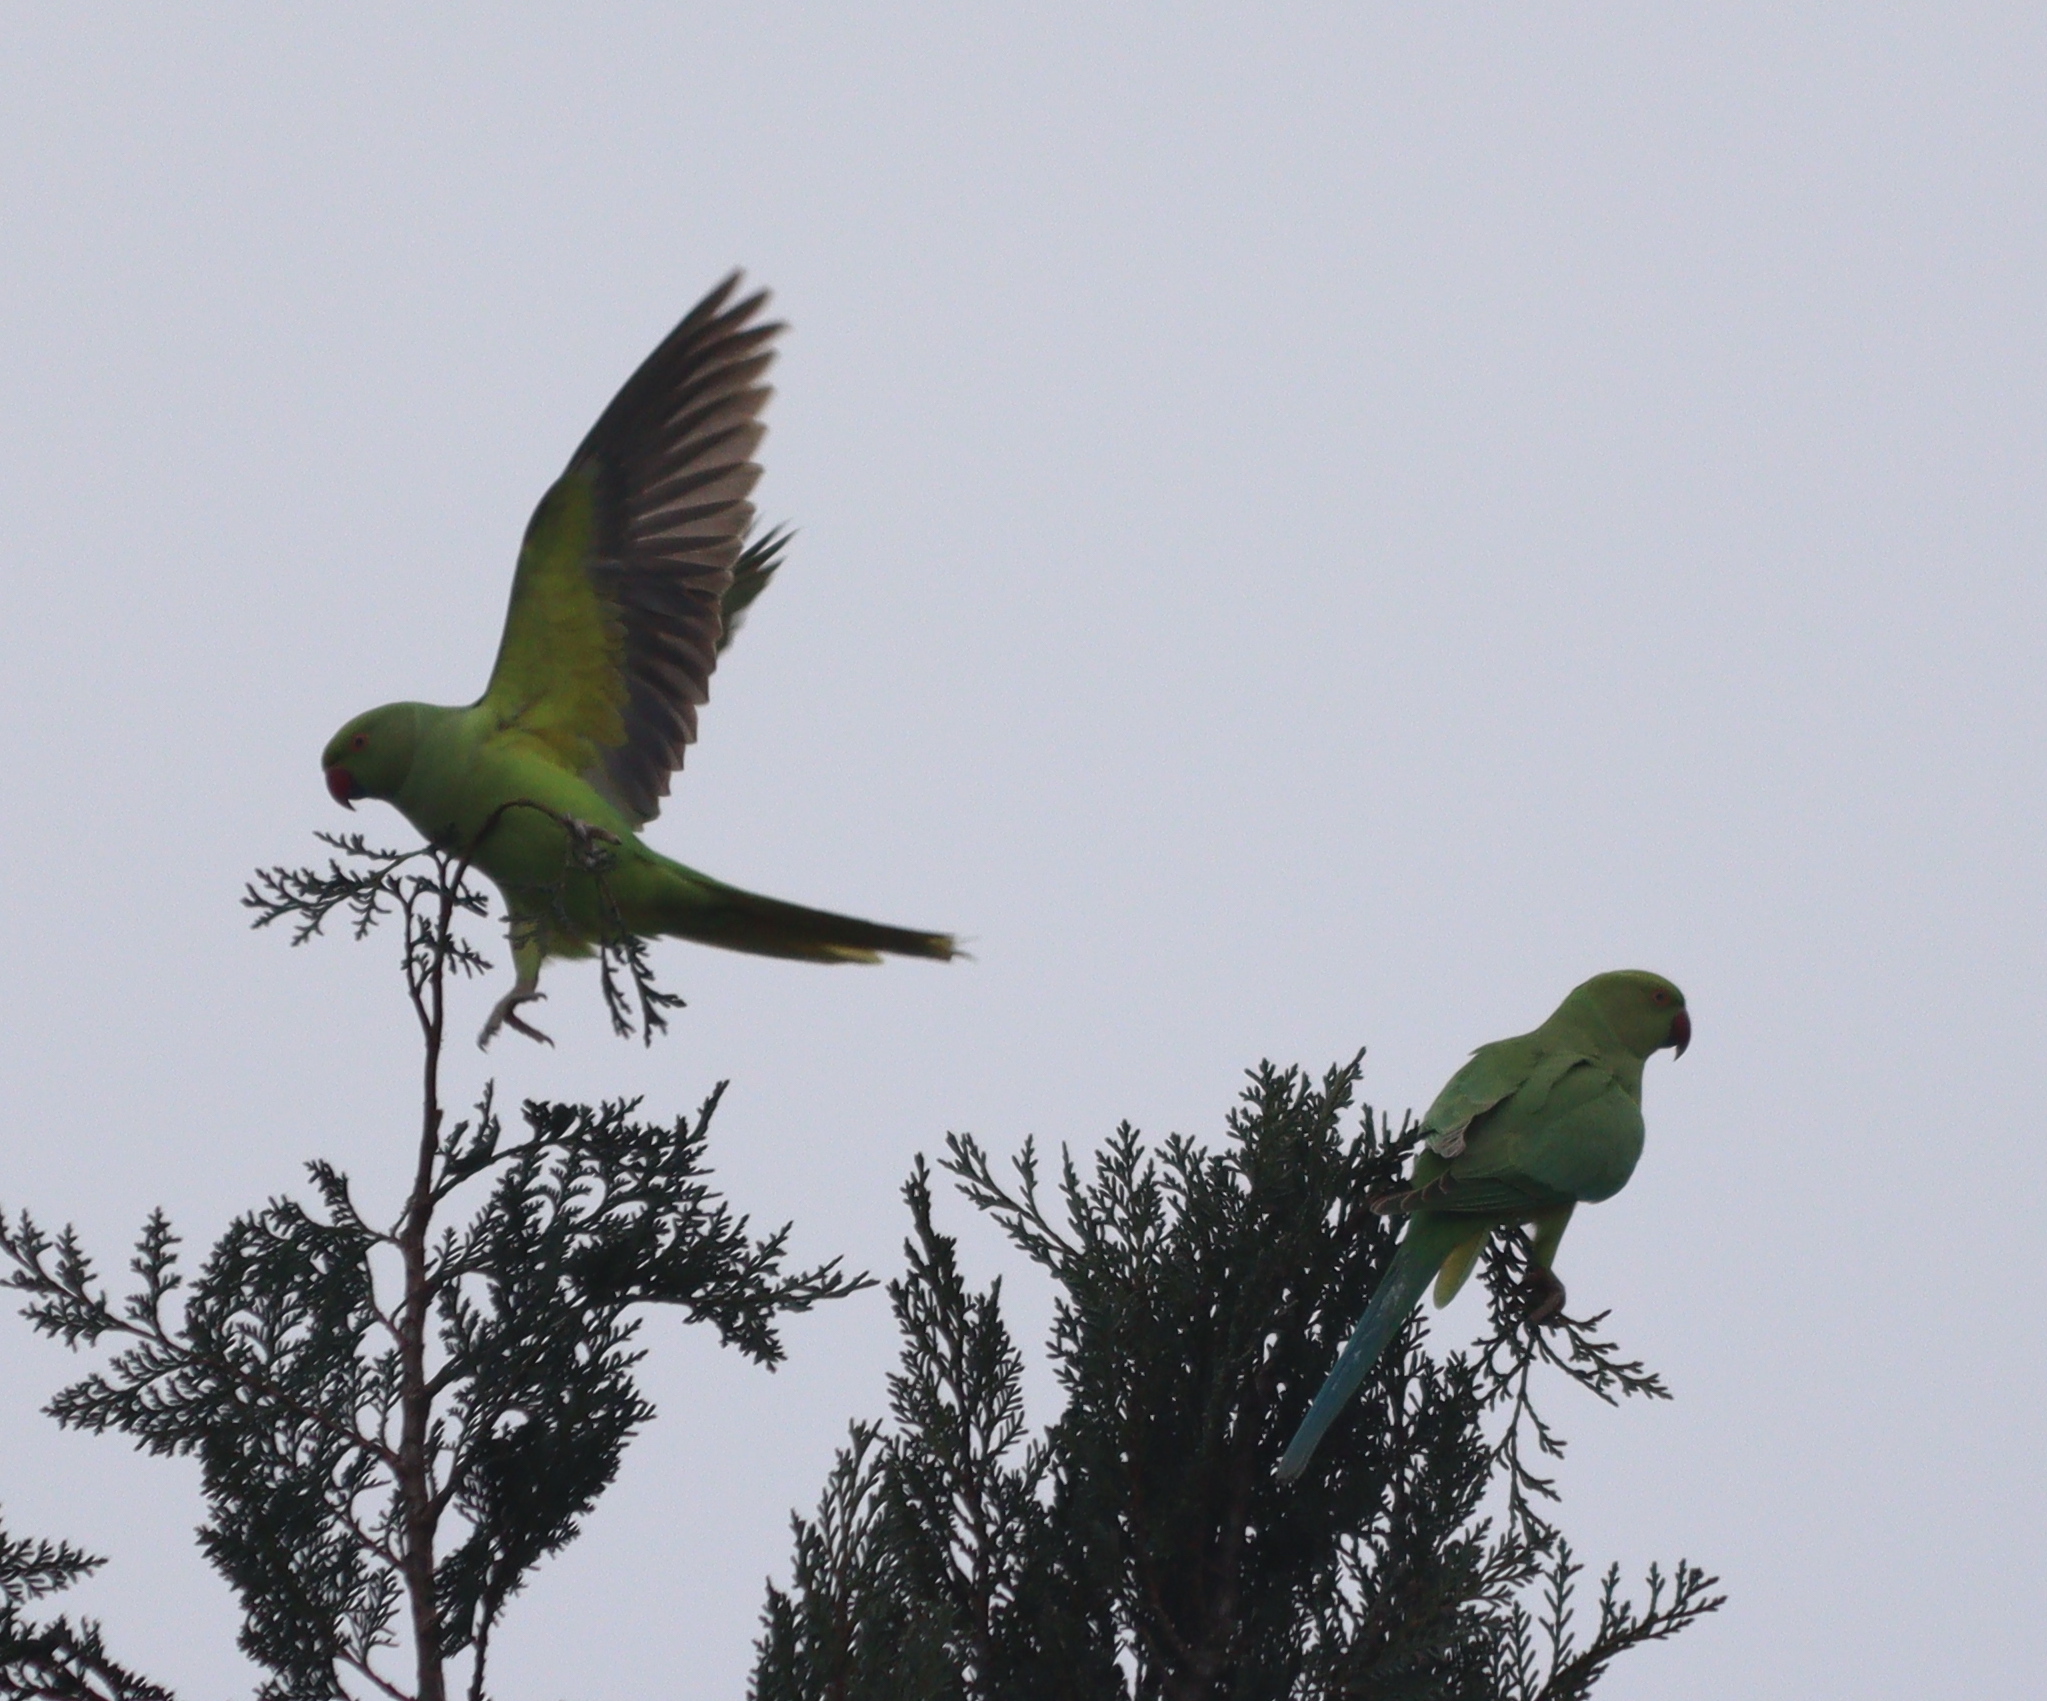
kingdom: Animalia
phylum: Chordata
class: Aves
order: Psittaciformes
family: Psittacidae
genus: Psittacula
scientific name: Psittacula krameri
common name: Rose-ringed parakeet
